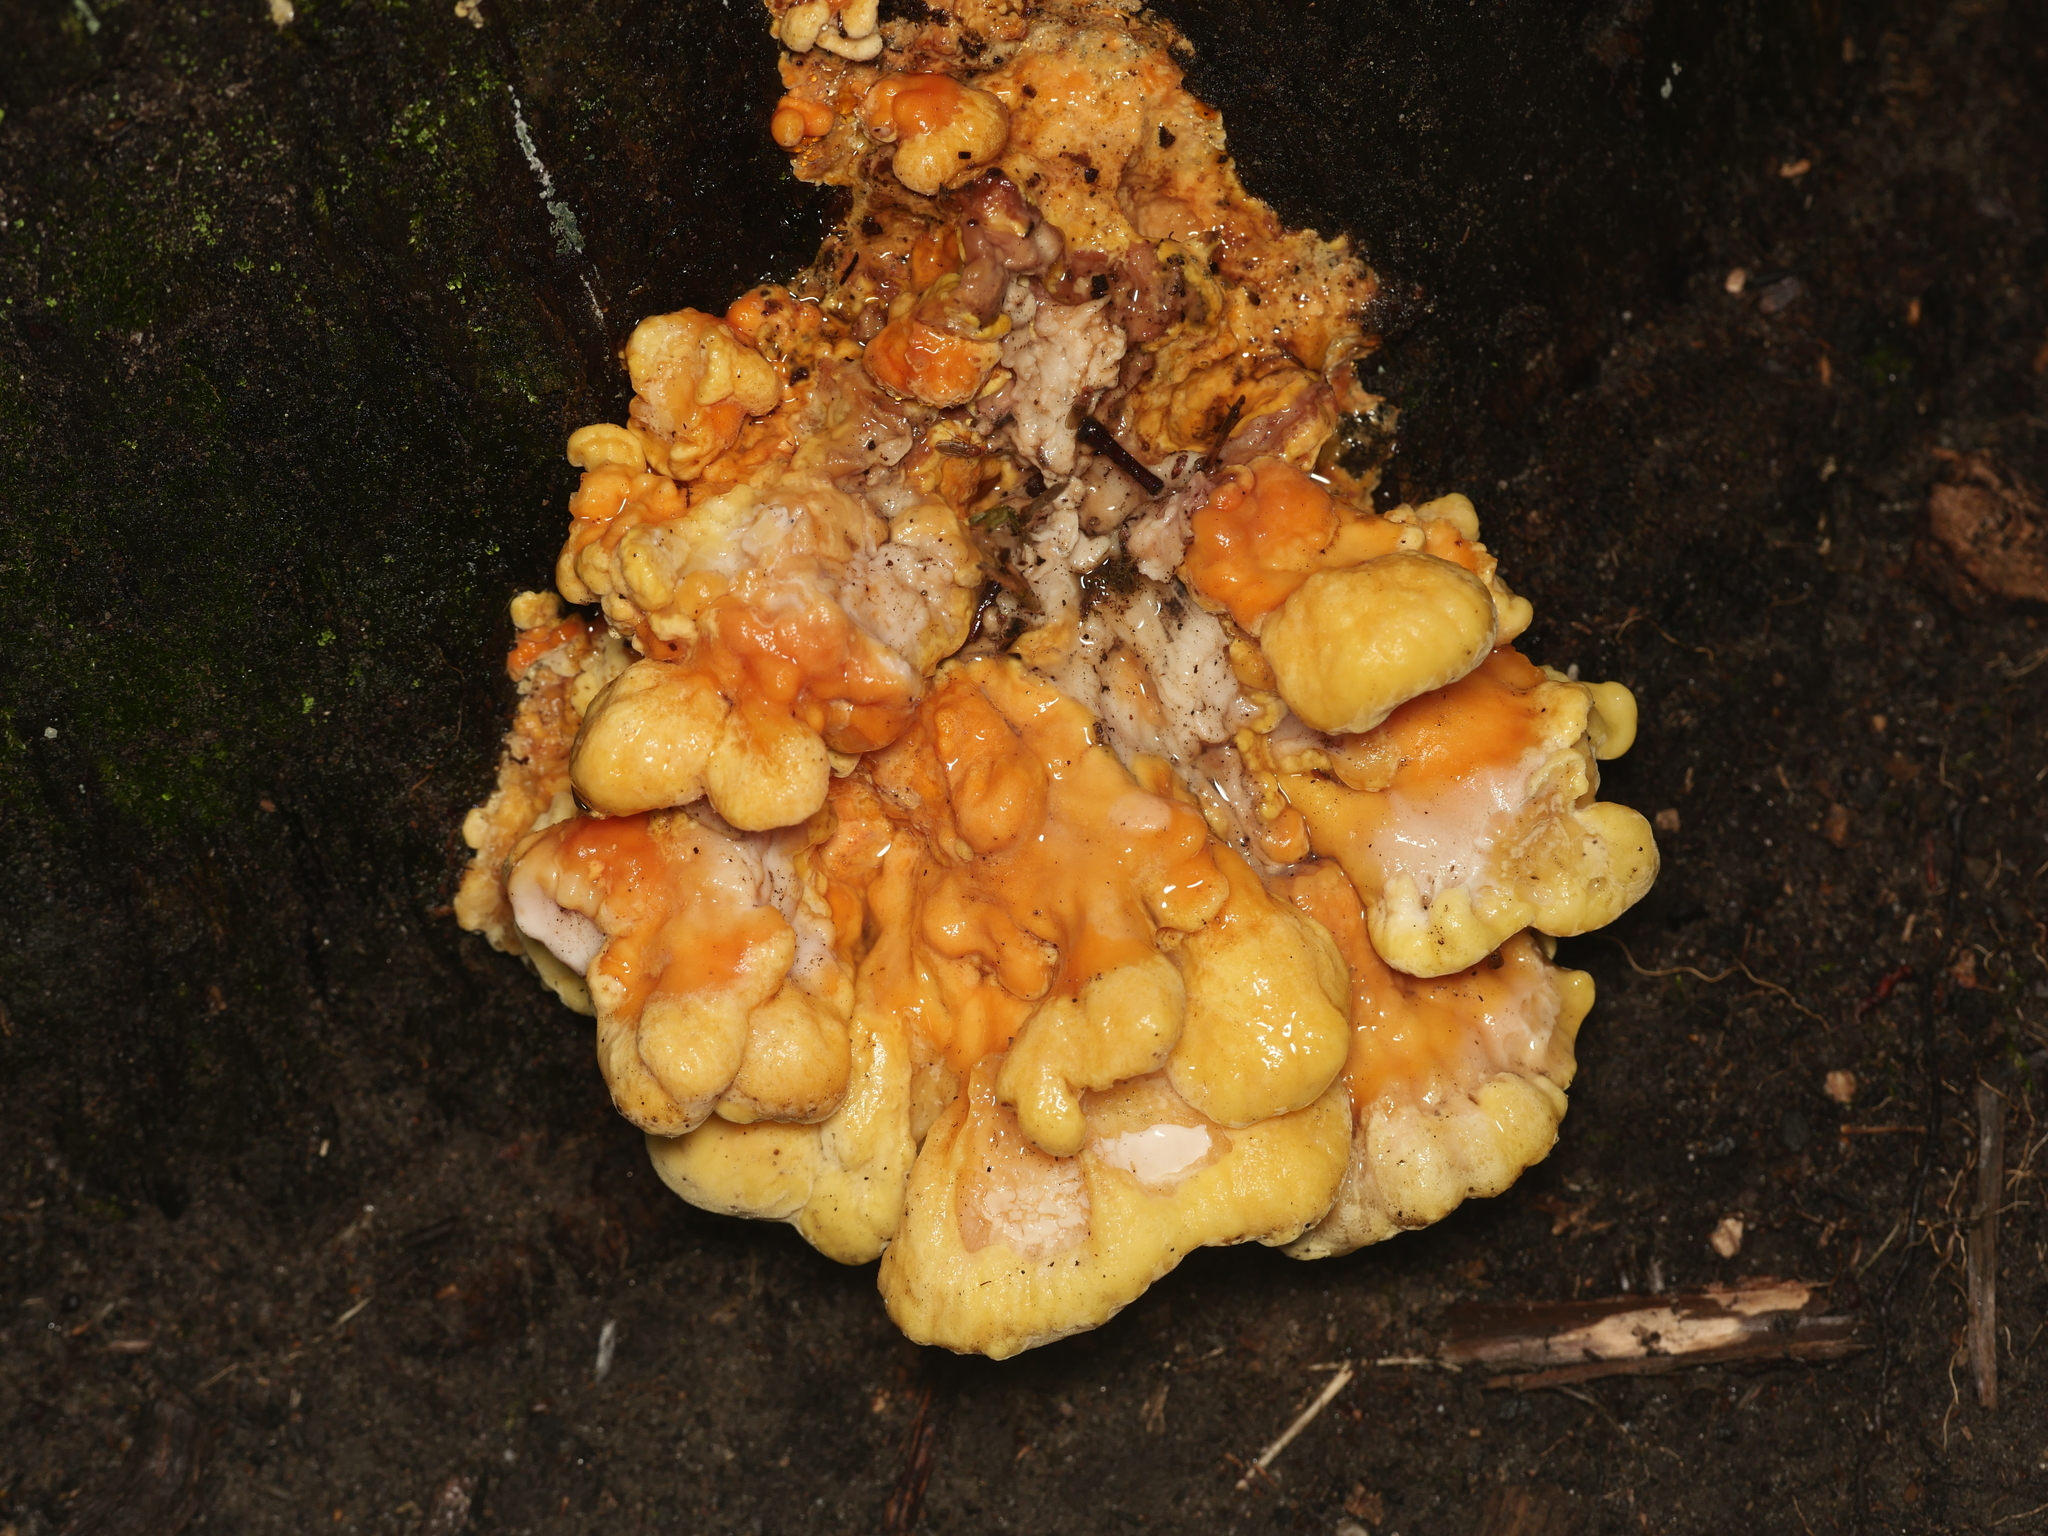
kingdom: Fungi
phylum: Basidiomycota
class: Agaricomycetes
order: Polyporales
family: Laetiporaceae
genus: Laetiporus
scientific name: Laetiporus sulphureus
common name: Chicken of the woods
